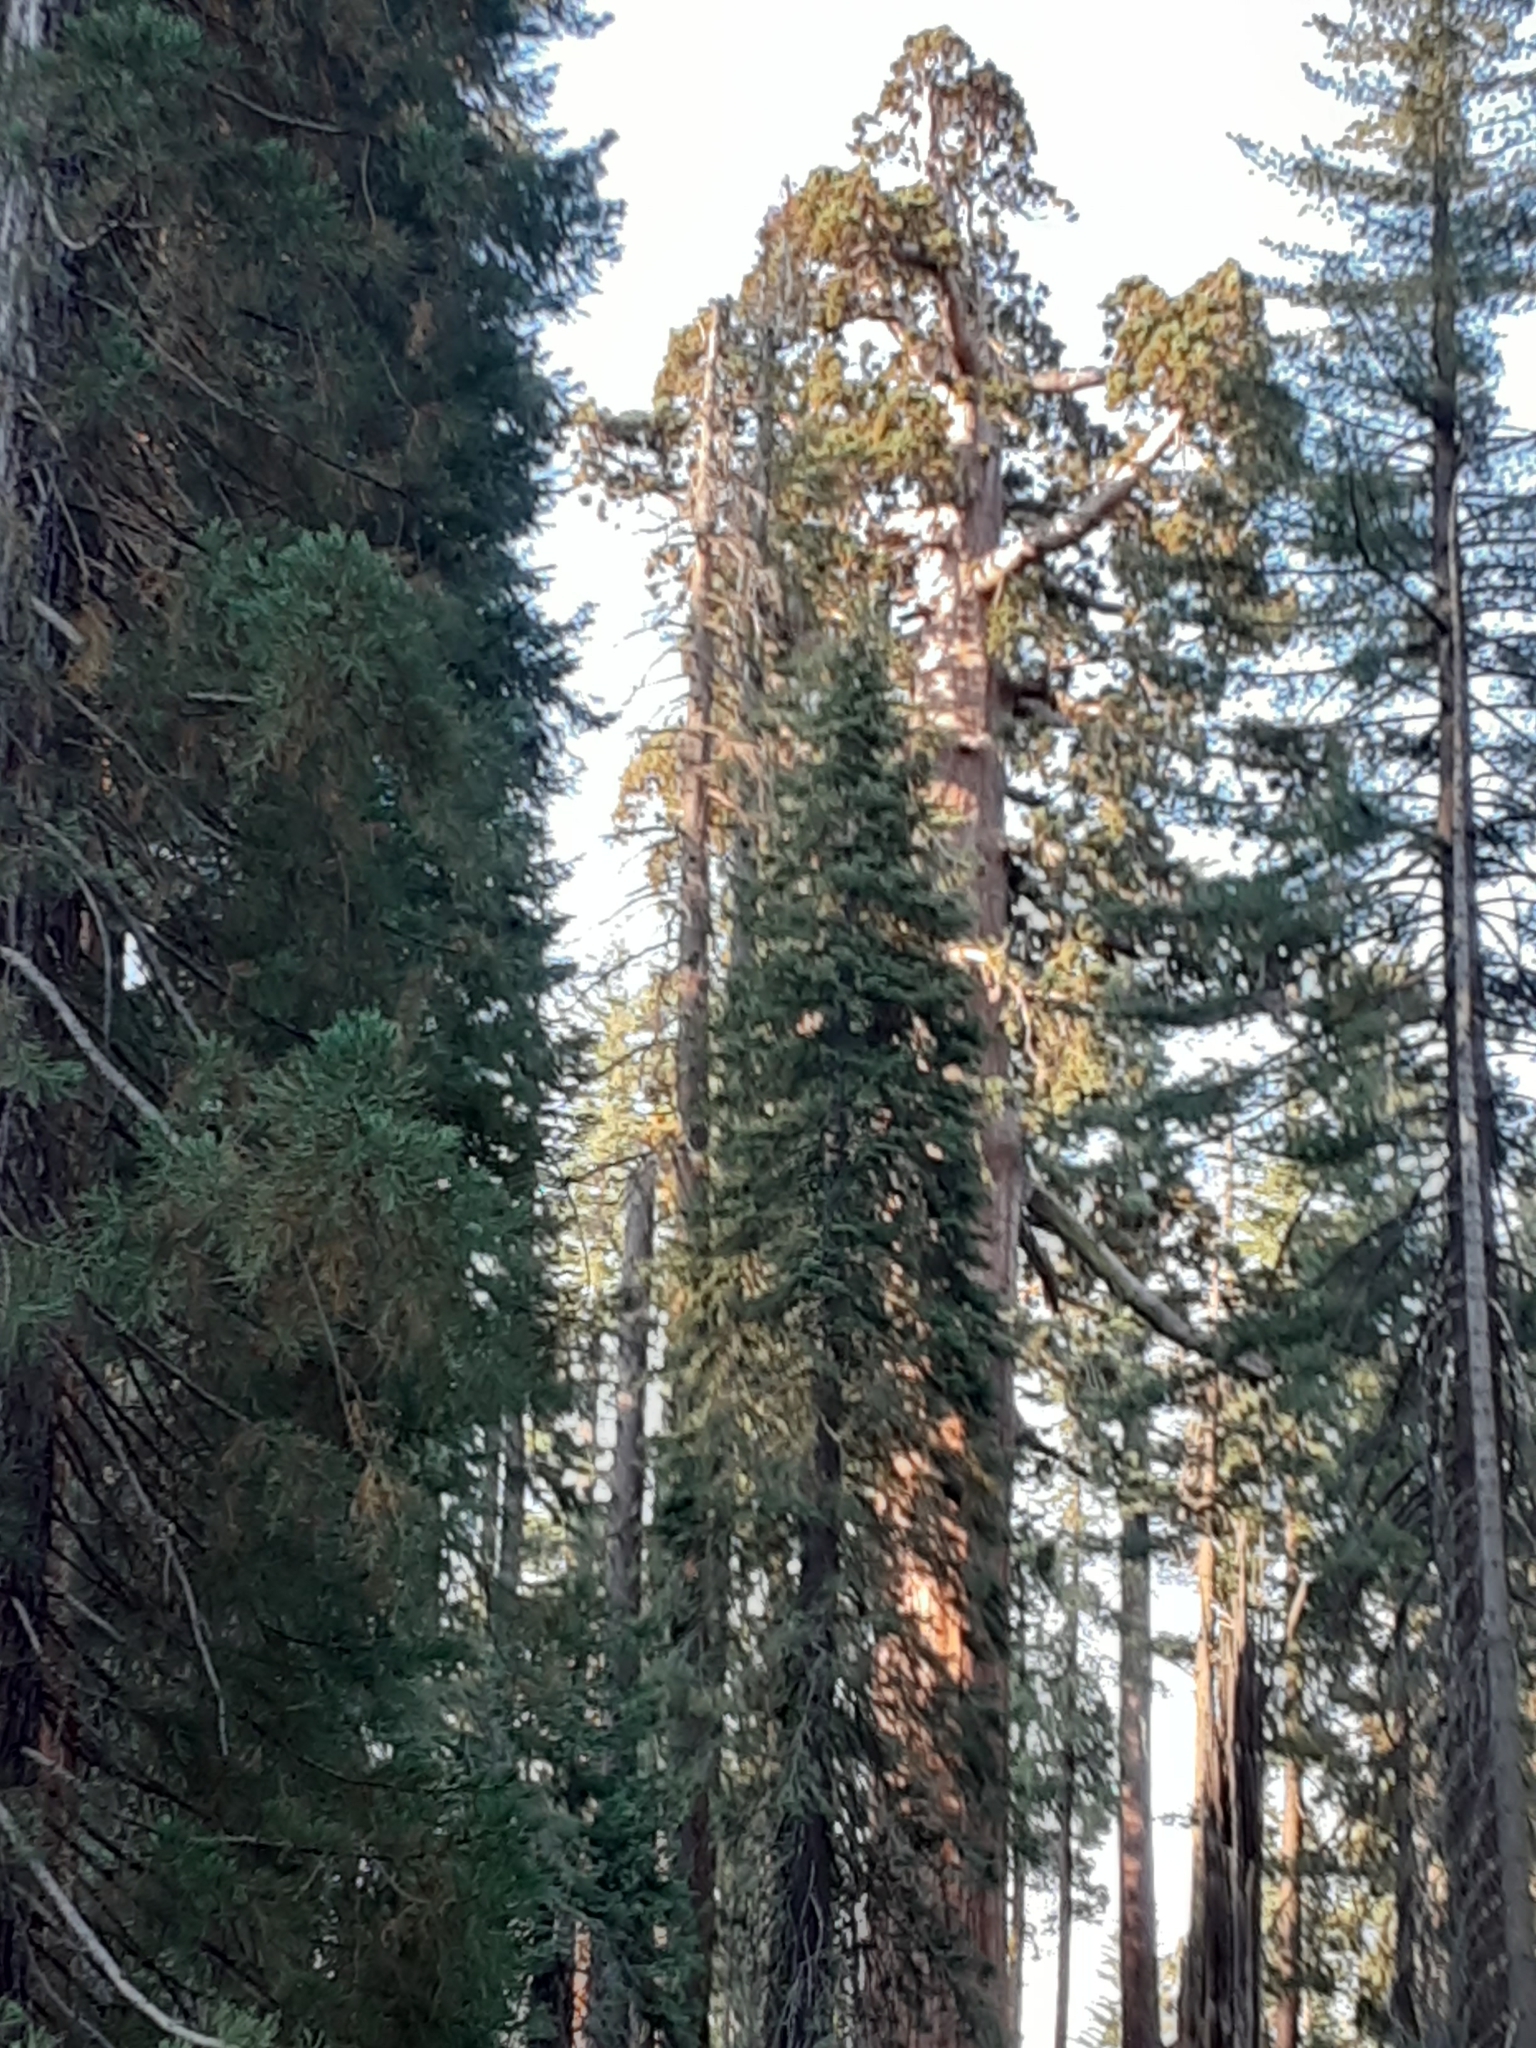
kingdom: Plantae
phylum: Tracheophyta
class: Pinopsida
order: Pinales
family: Cupressaceae
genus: Sequoiadendron
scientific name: Sequoiadendron giganteum
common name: Wellingtonia
